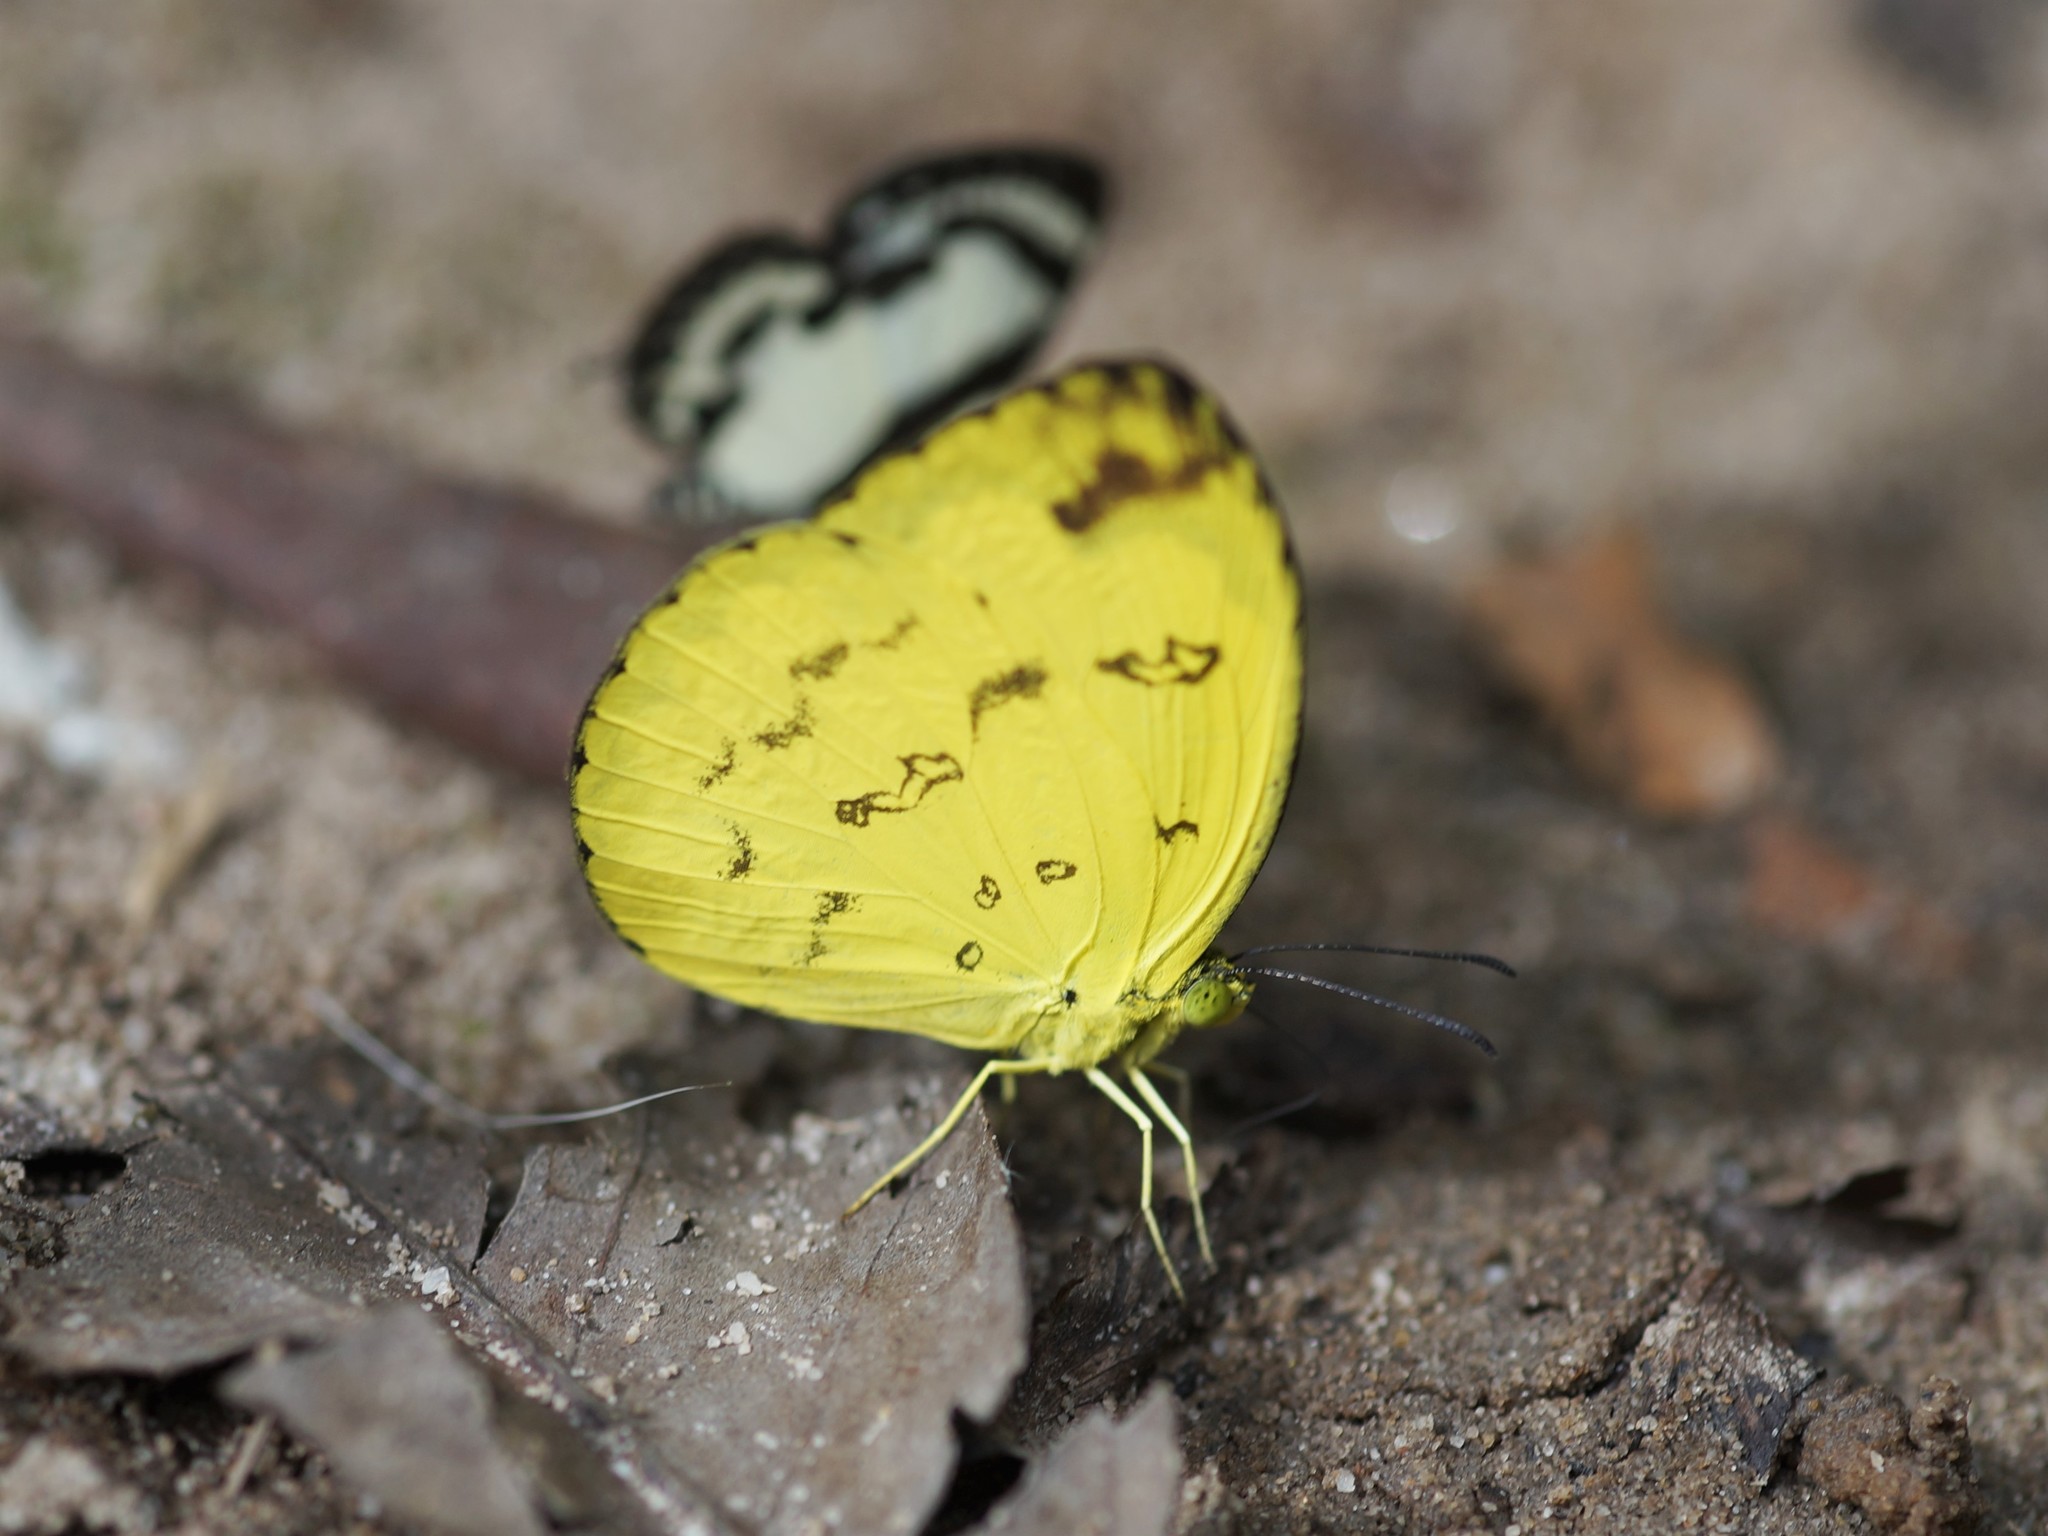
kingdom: Animalia
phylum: Arthropoda
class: Insecta
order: Lepidoptera
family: Pieridae
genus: Eurema
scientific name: Eurema andersoni
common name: One-spot yellow grass
